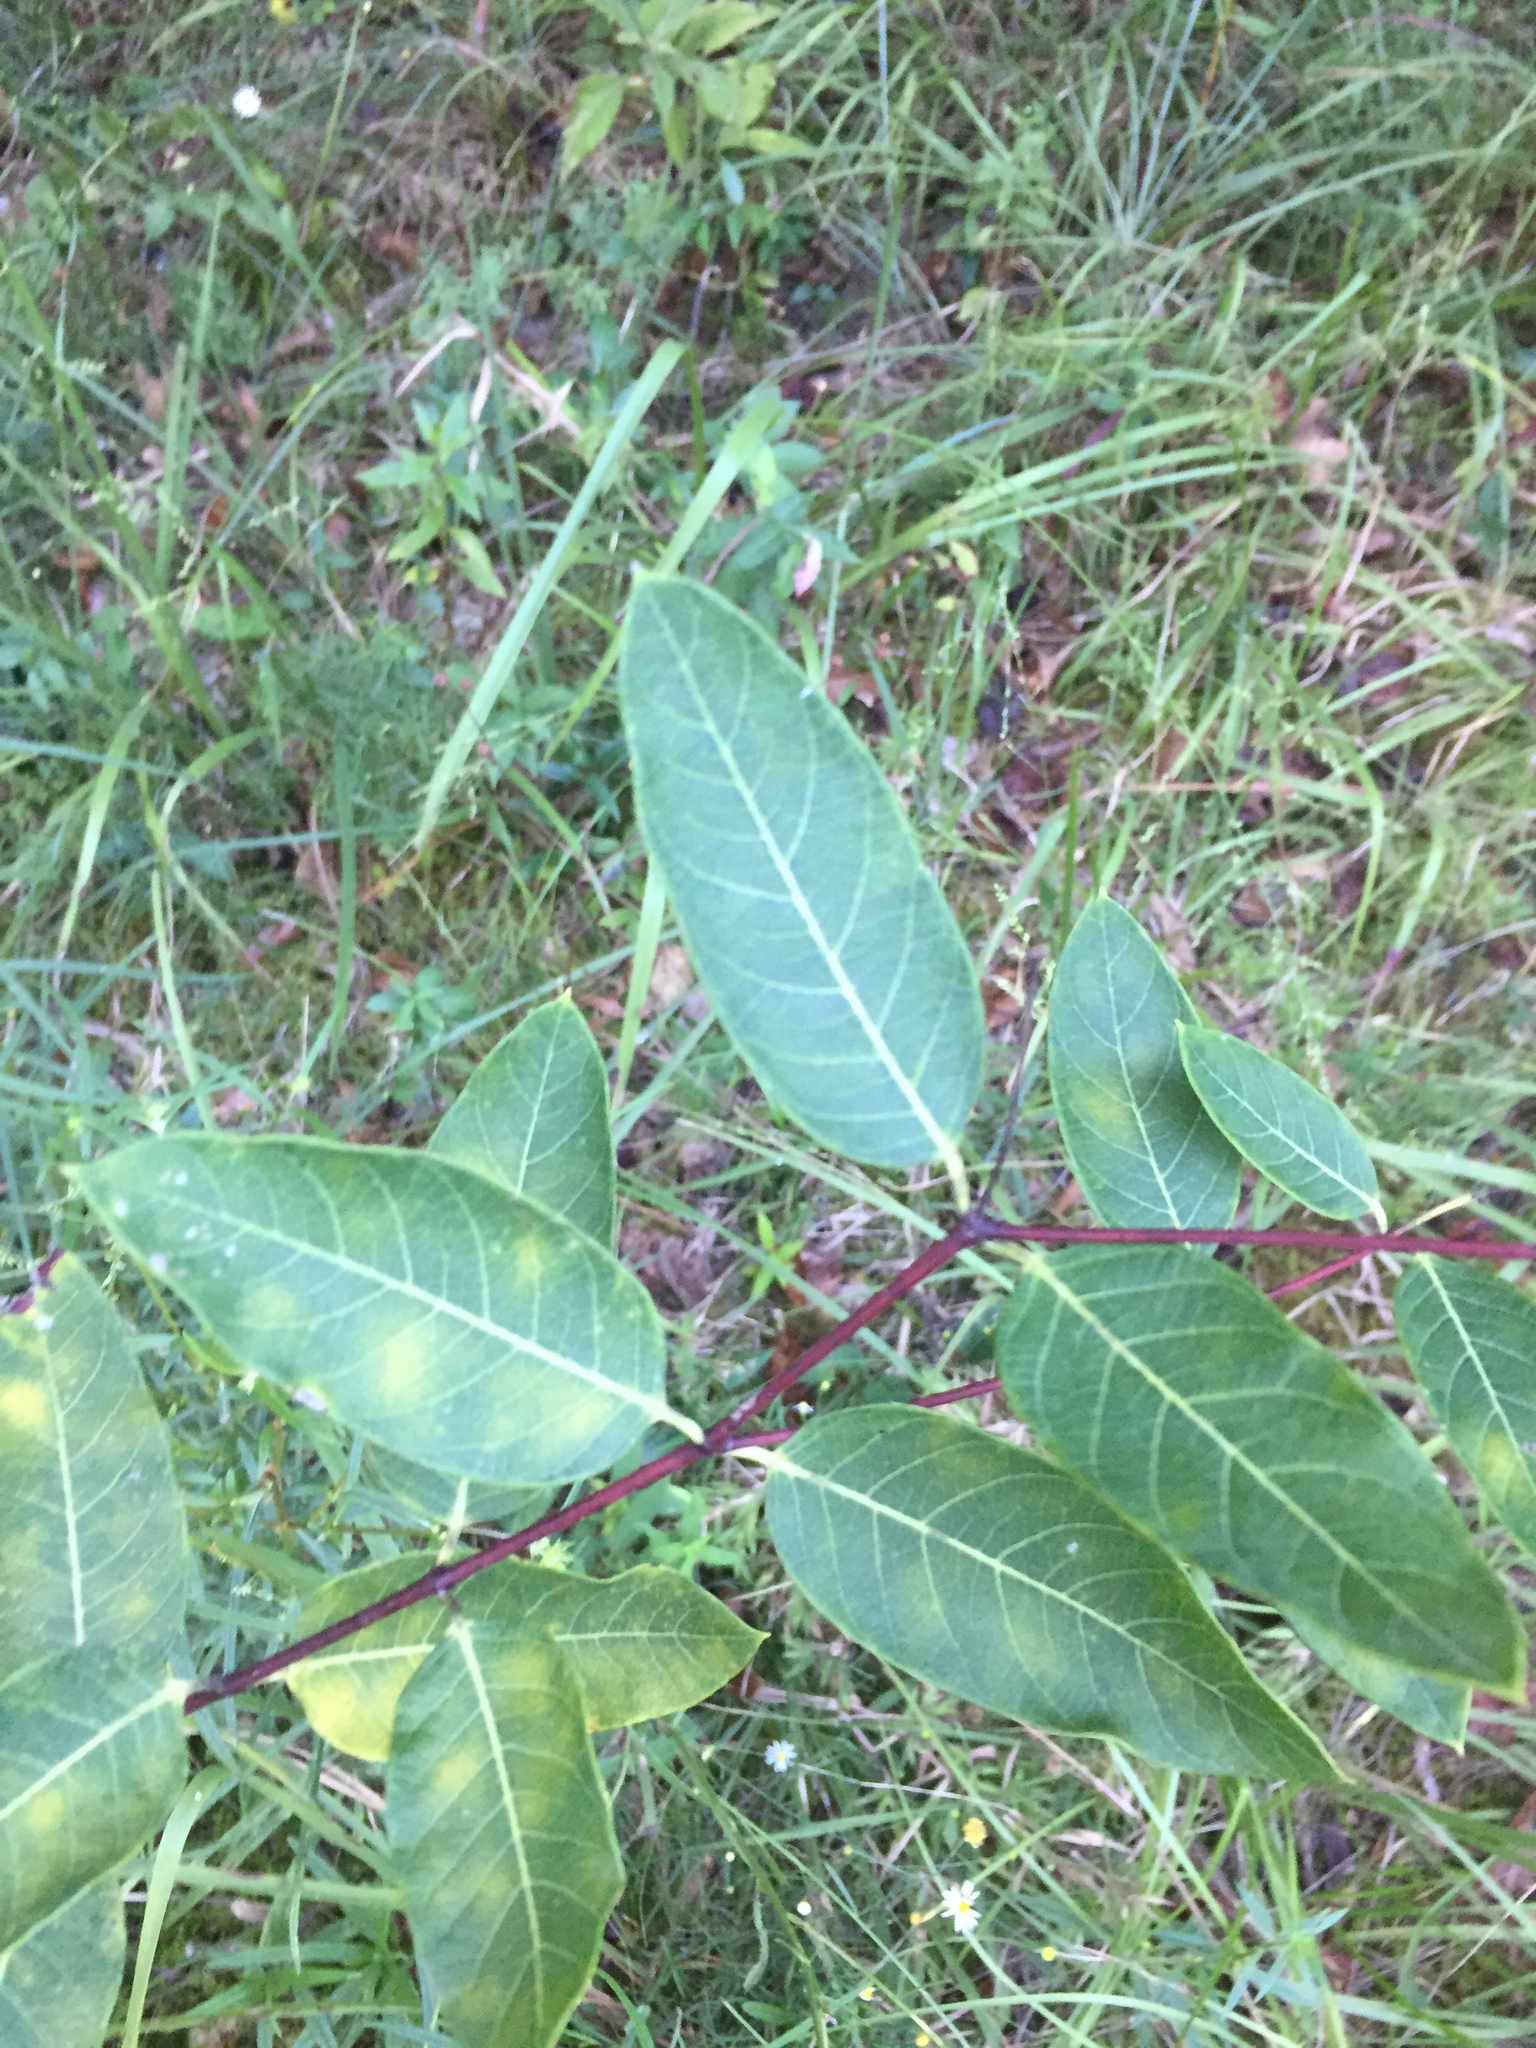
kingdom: Plantae
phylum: Tracheophyta
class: Magnoliopsida
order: Gentianales
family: Apocynaceae
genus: Apocynum
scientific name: Apocynum cannabinum
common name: Hemp dogbane
